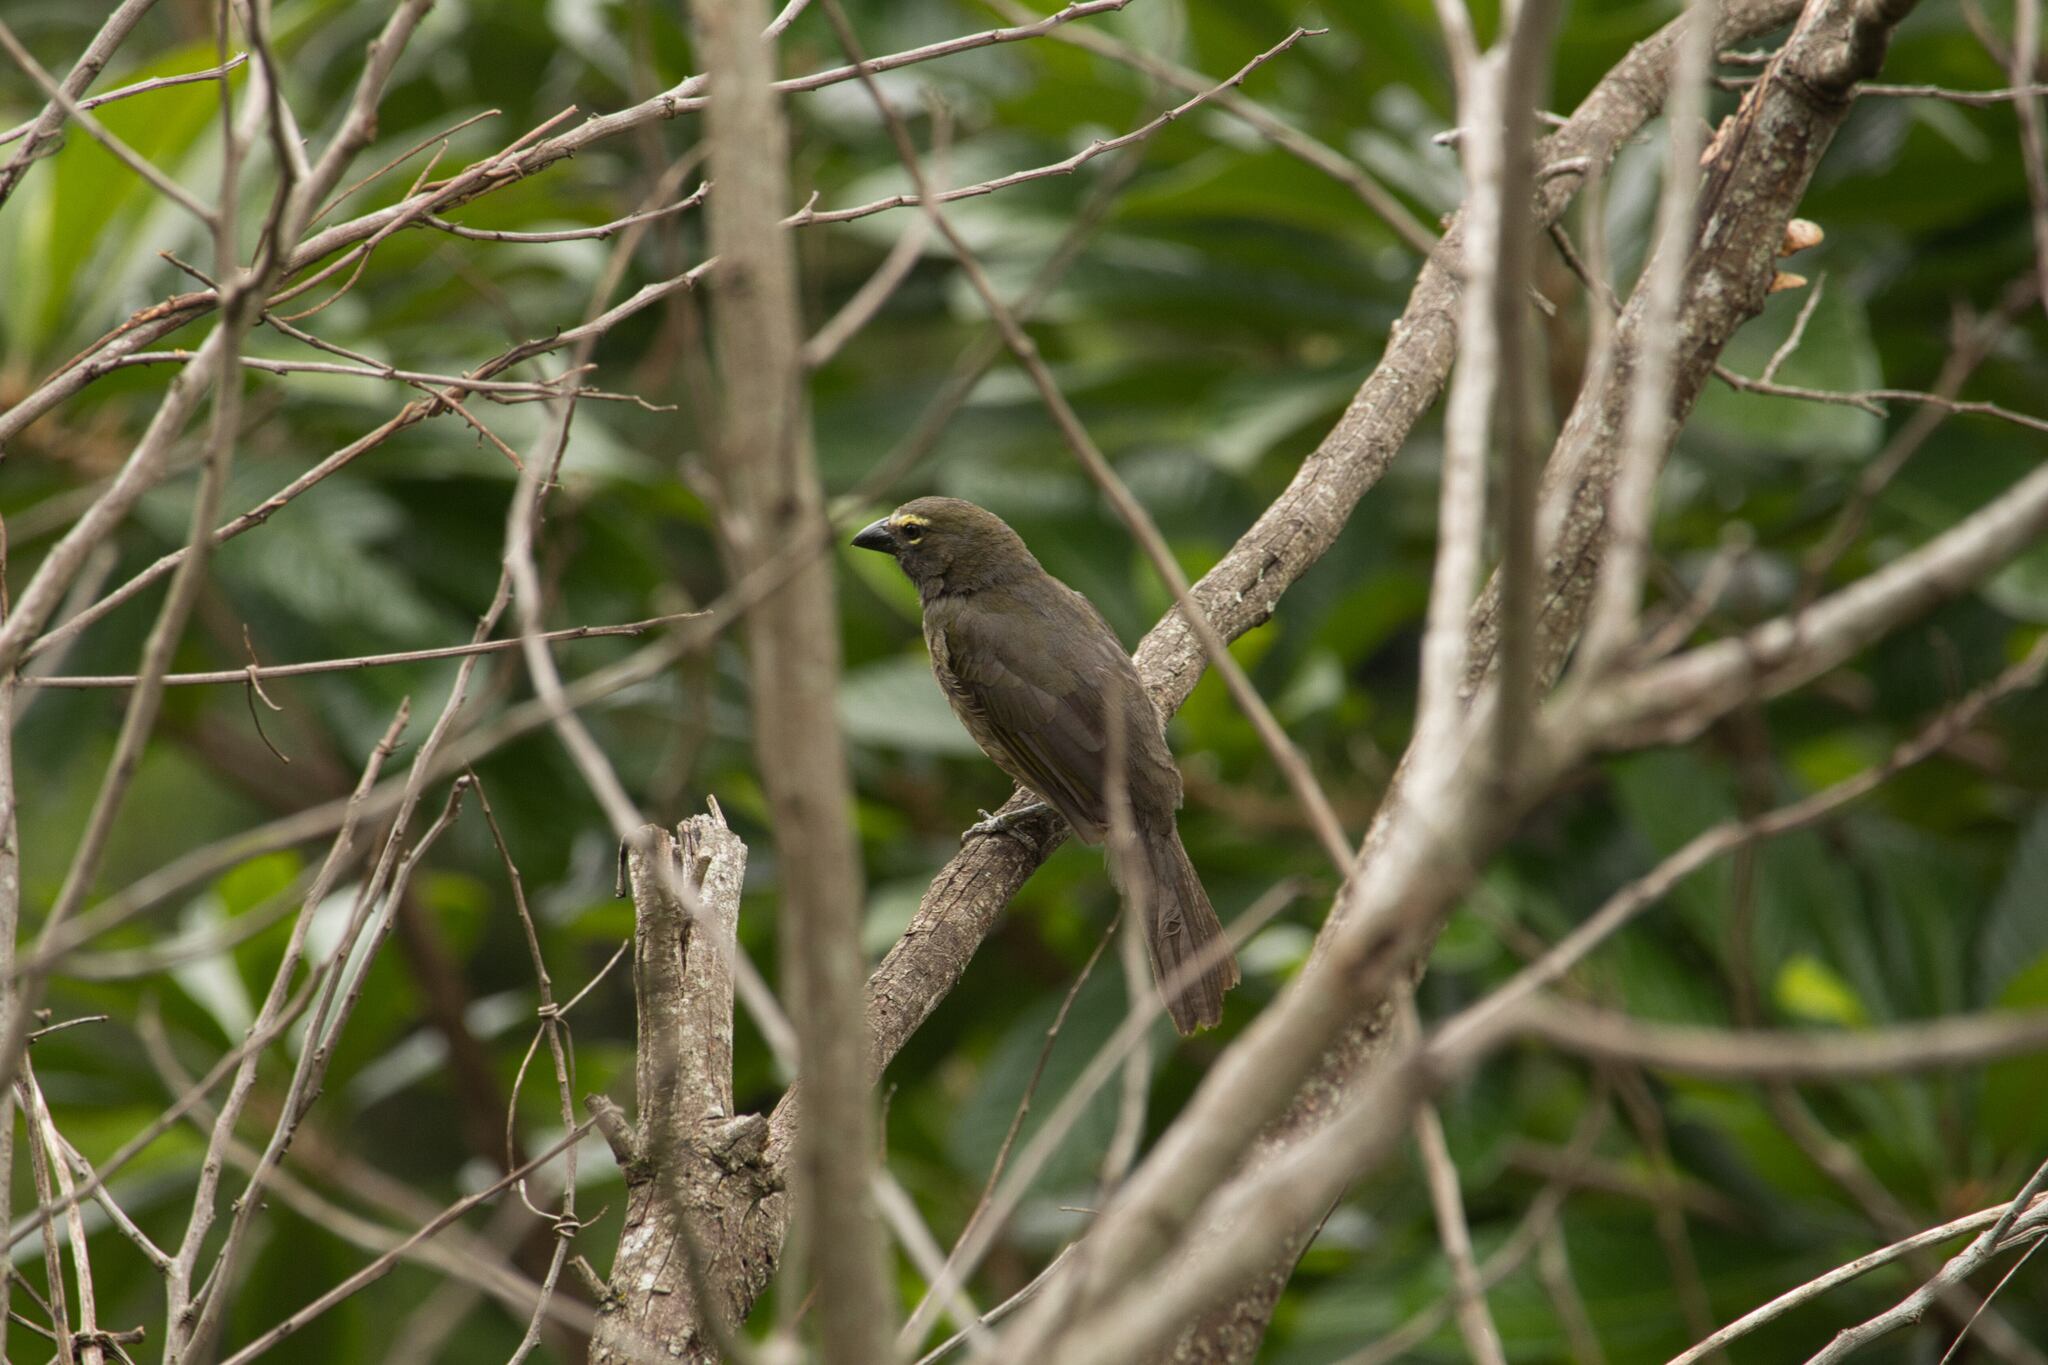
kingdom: Animalia
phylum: Chordata
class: Aves
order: Passeriformes
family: Thraupidae
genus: Saltator
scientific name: Saltator grandis
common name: Cinnamon-bellied saltator
